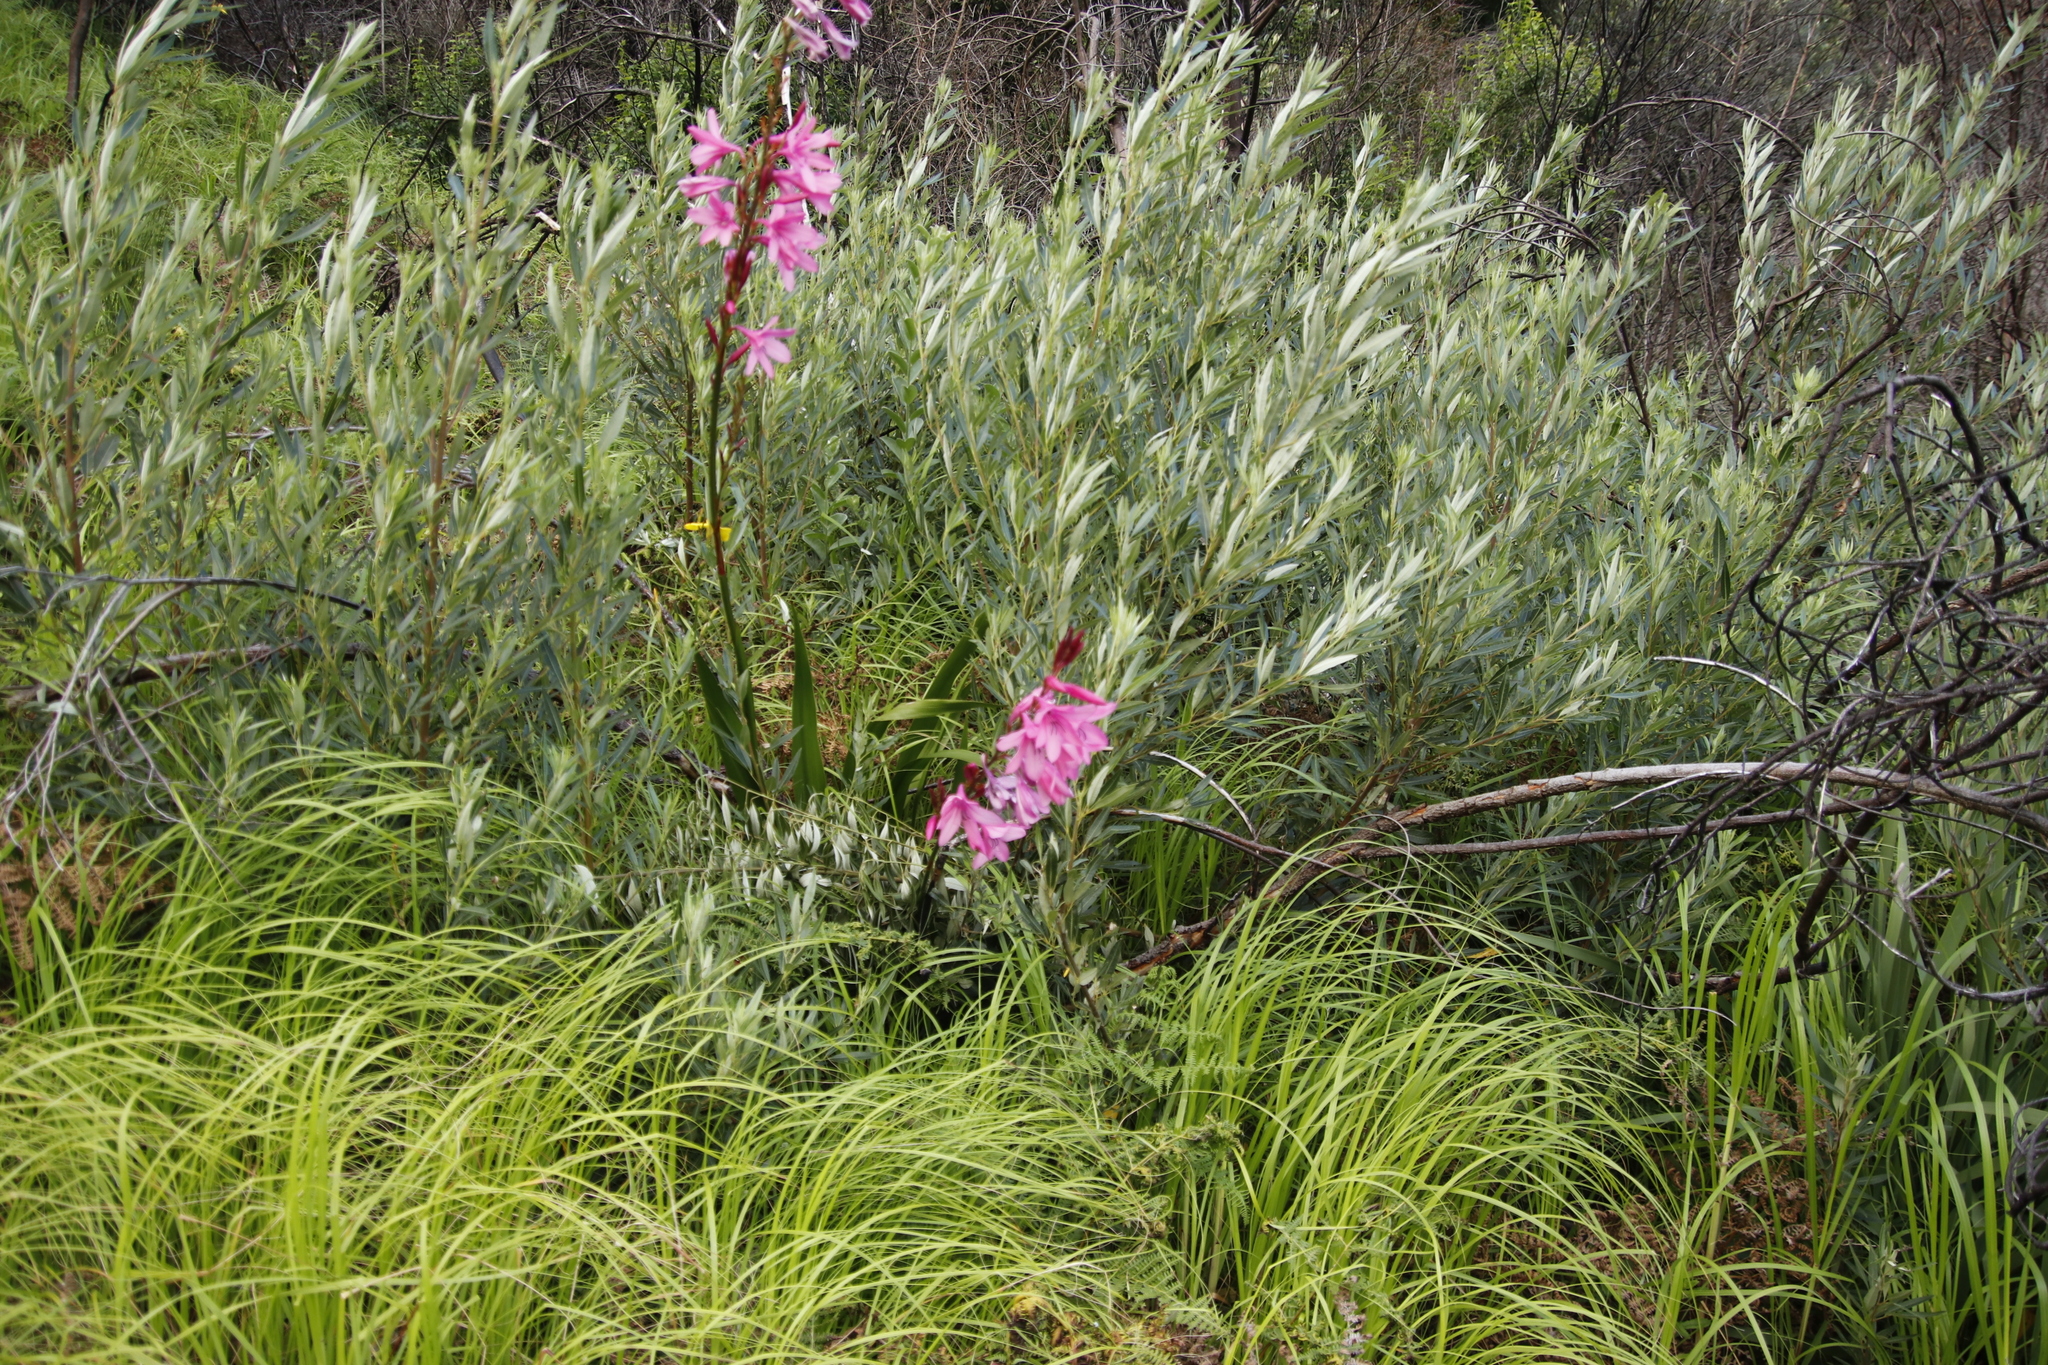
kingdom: Plantae
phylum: Tracheophyta
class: Magnoliopsida
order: Sapindales
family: Anacardiaceae
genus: Searsia
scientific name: Searsia angustifolia
